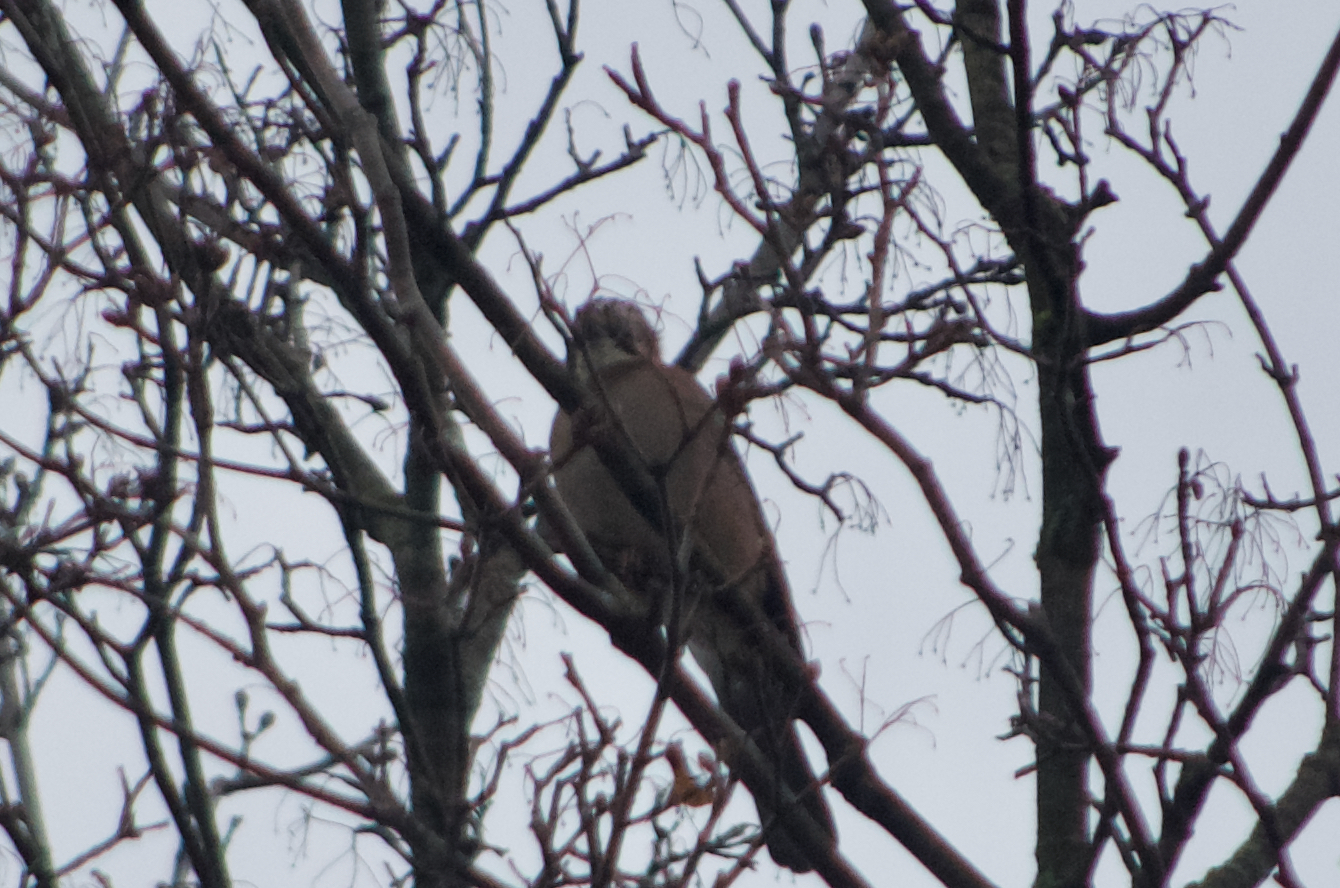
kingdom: Animalia
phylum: Chordata
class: Aves
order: Passeriformes
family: Corvidae
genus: Garrulus
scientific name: Garrulus glandarius
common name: Eurasian jay
